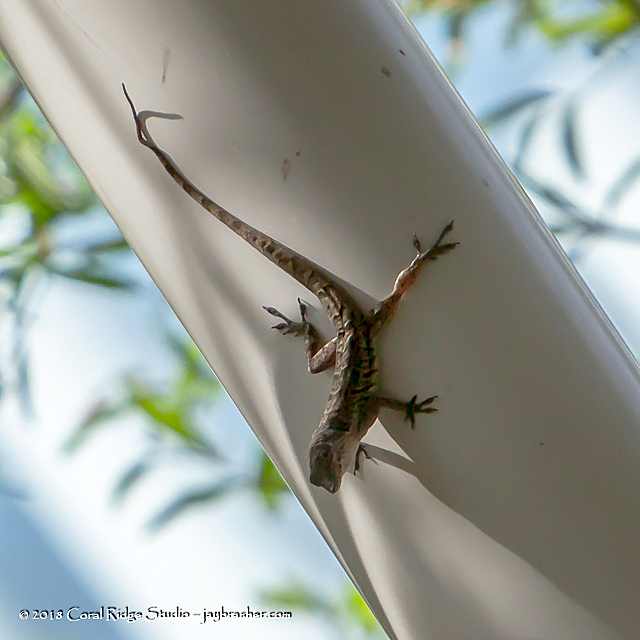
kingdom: Animalia
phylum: Chordata
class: Squamata
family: Dactyloidae
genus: Anolis
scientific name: Anolis bonairensis
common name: Ruthven's anole
